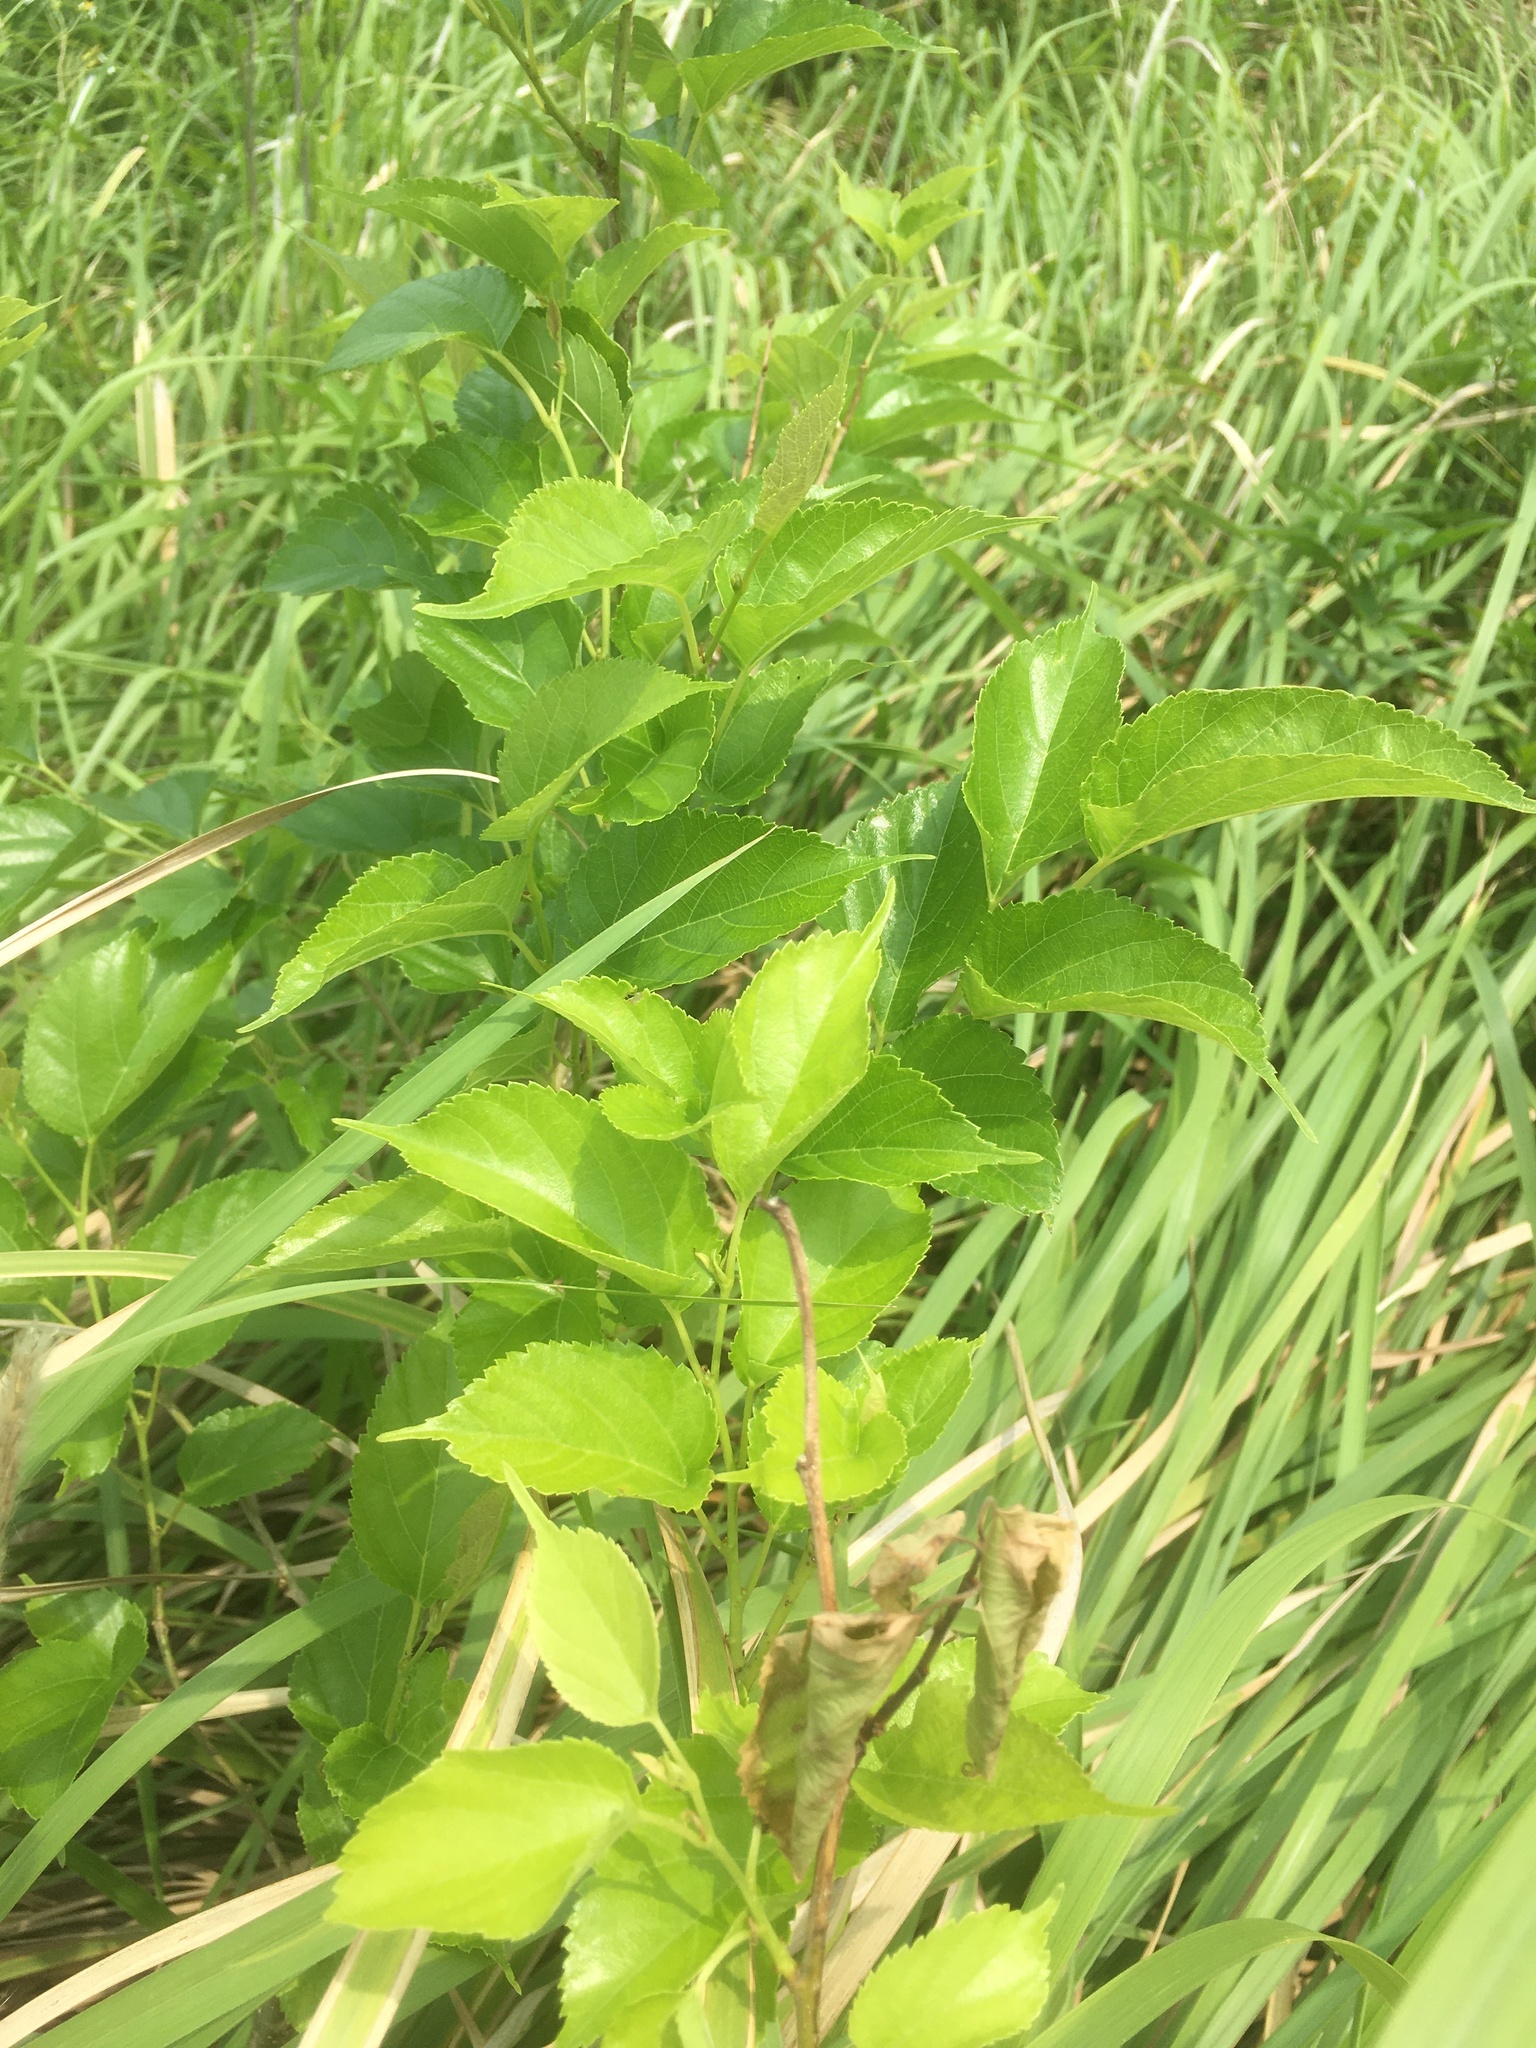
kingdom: Plantae
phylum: Tracheophyta
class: Magnoliopsida
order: Rosales
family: Moraceae
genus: Morus
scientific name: Morus indica
